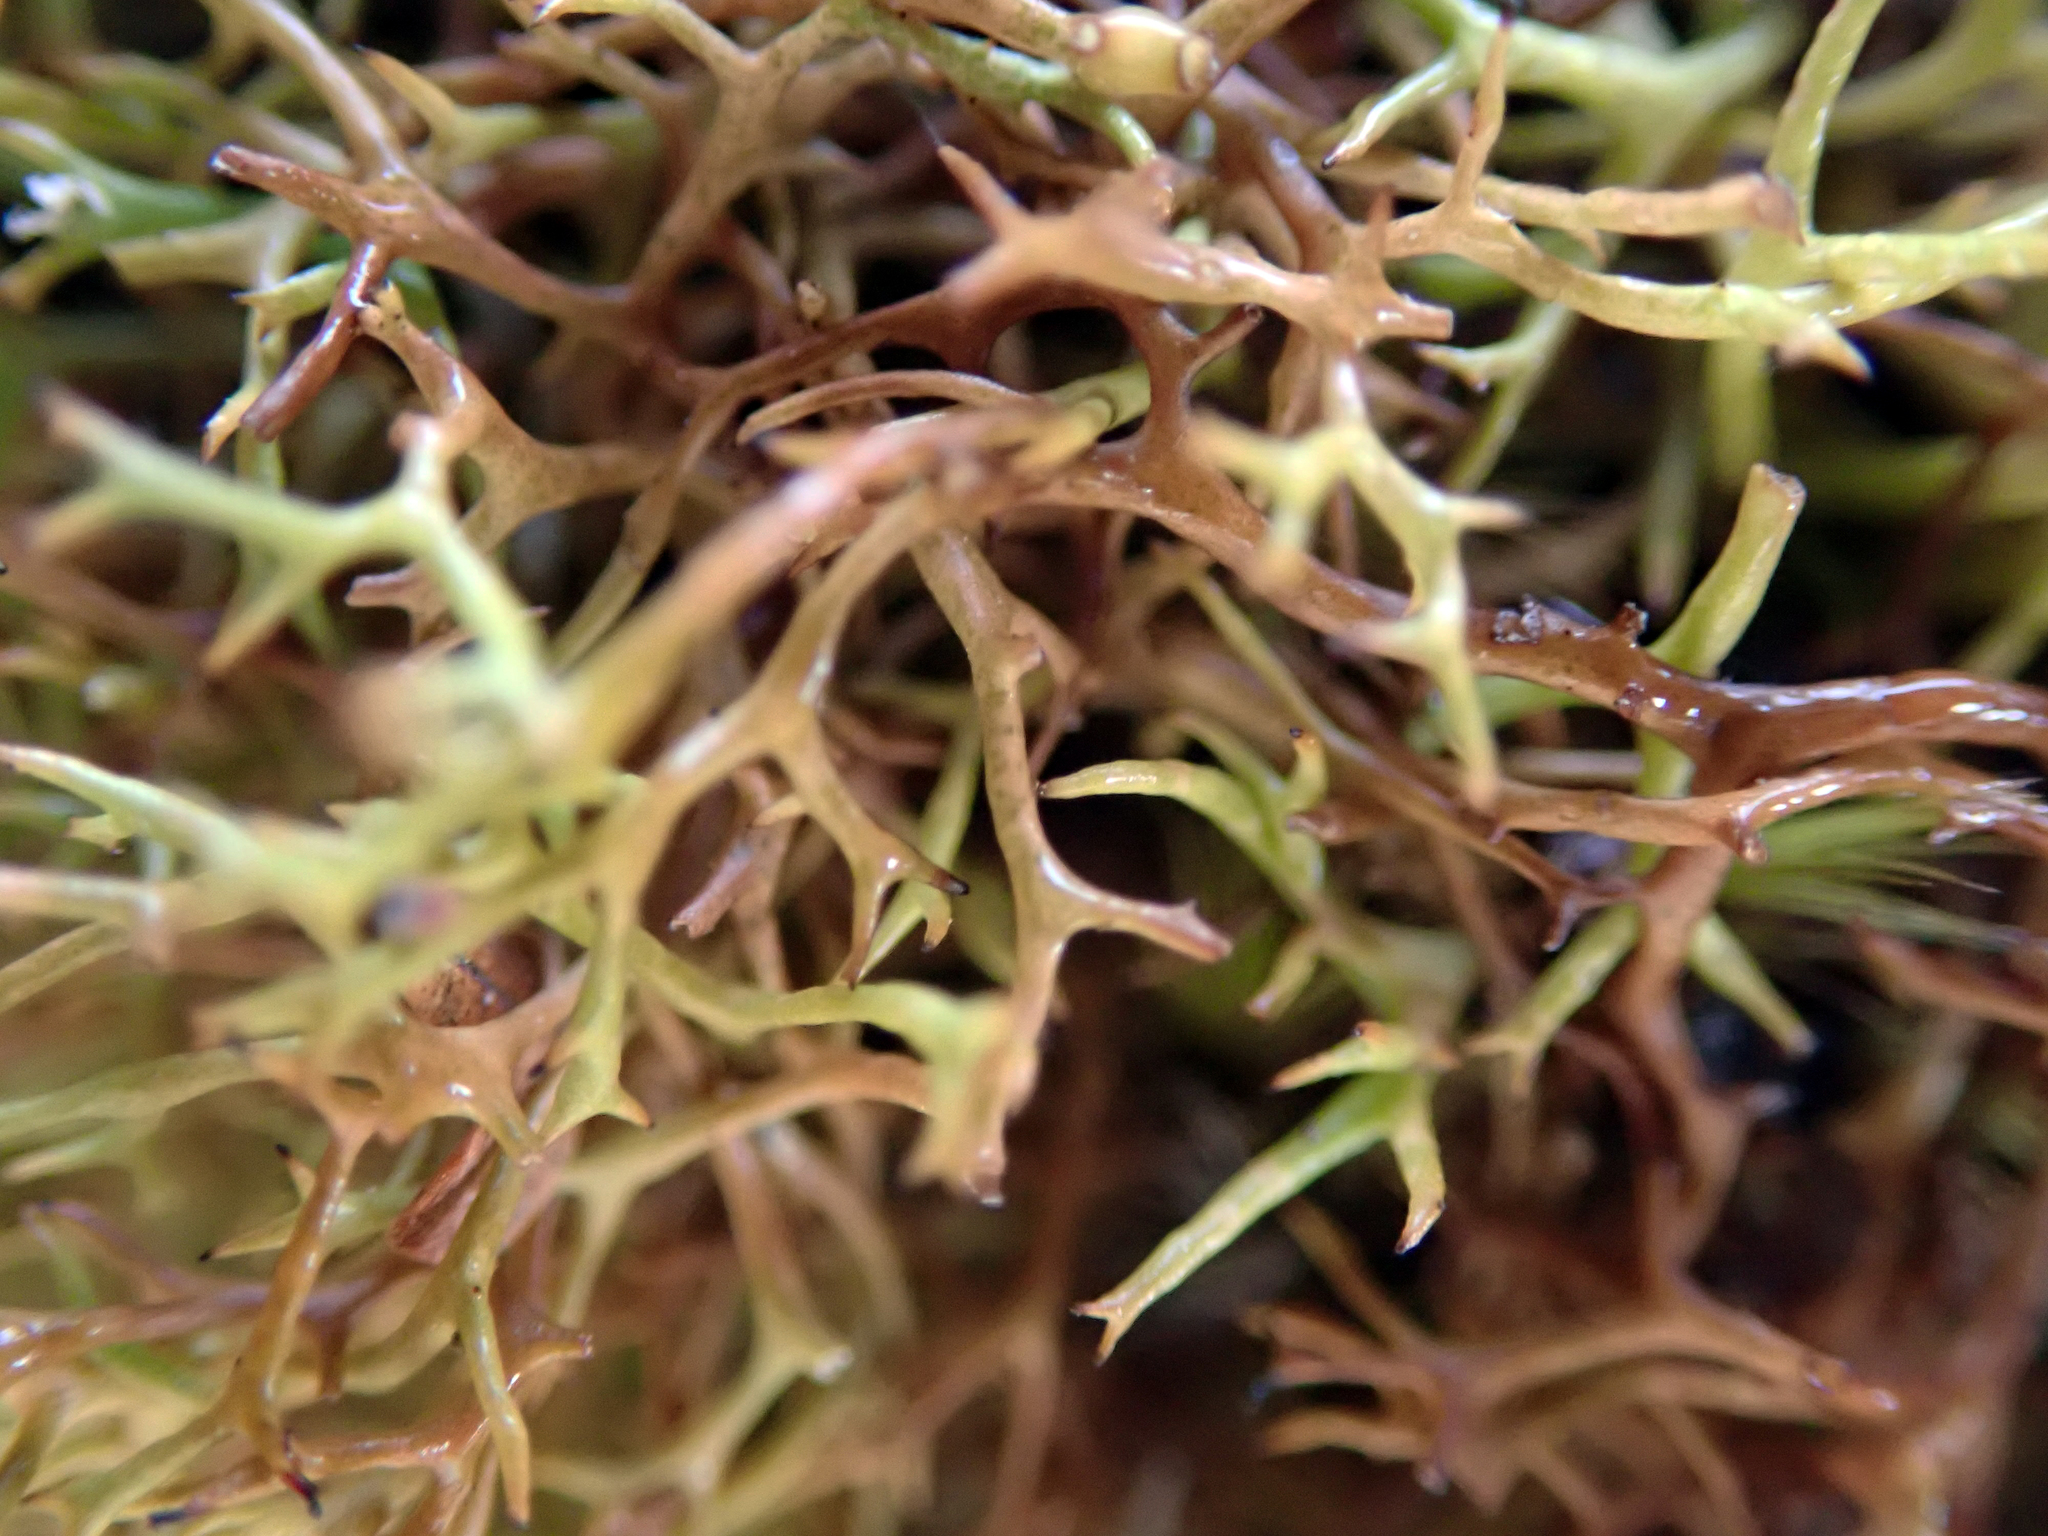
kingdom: Fungi
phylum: Ascomycota
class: Lecanoromycetes
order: Lecanorales
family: Cladoniaceae
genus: Cladia
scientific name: Cladia inflata
